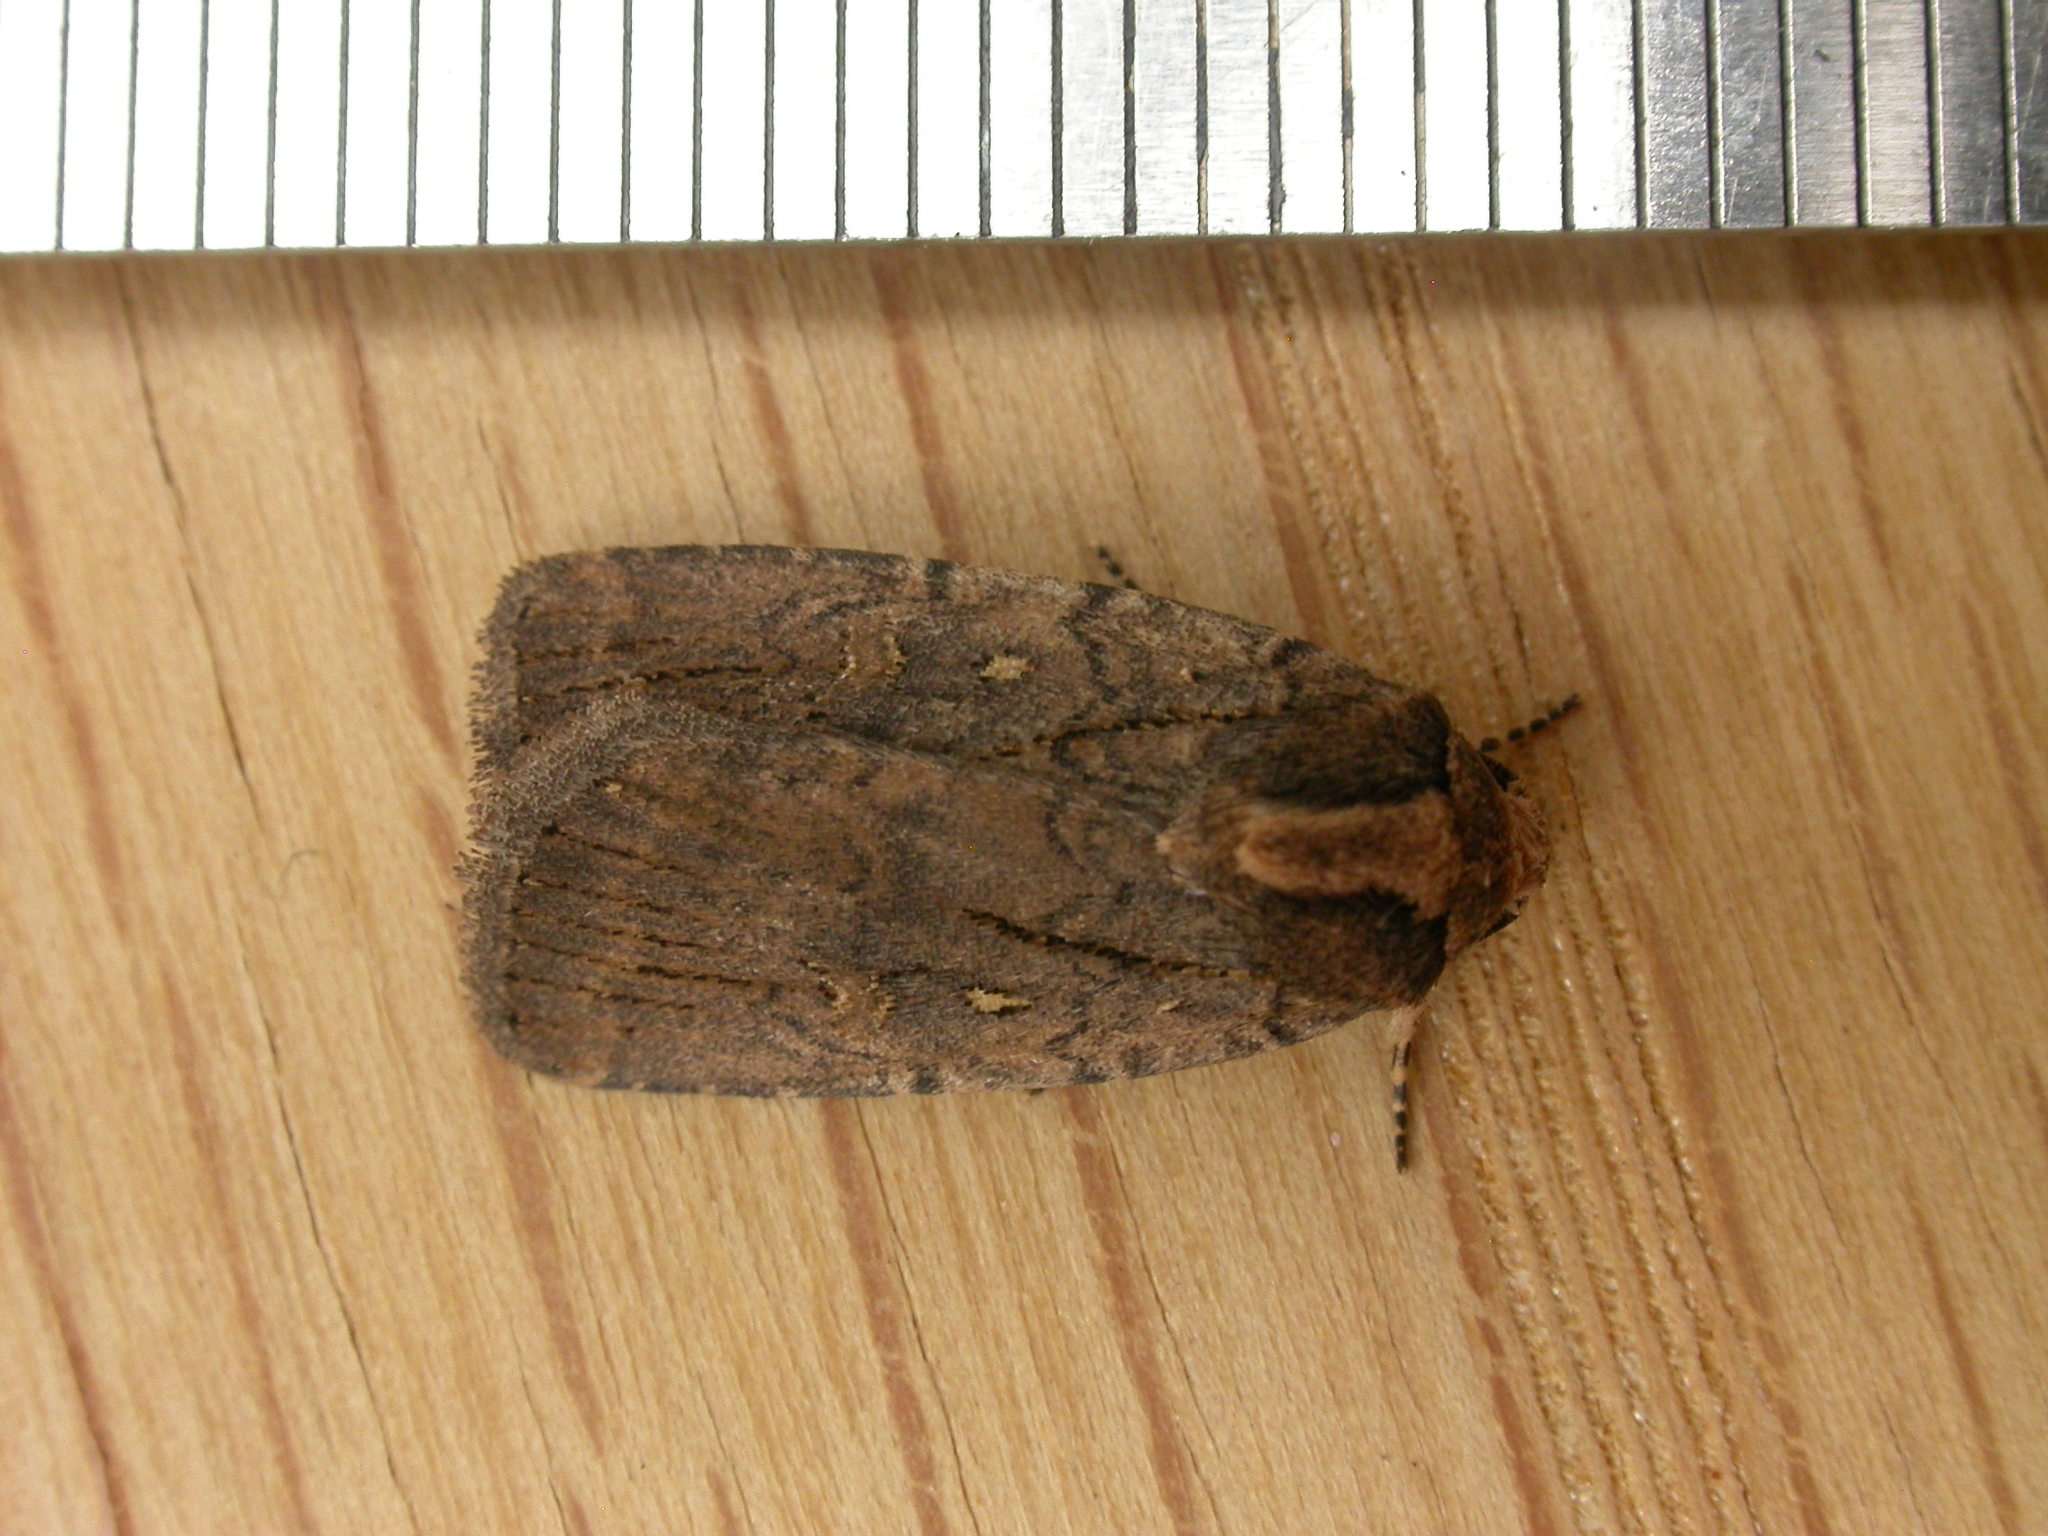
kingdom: Animalia
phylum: Arthropoda
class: Insecta
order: Lepidoptera
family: Noctuidae
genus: Proteuxoa
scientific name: Proteuxoa nyctereutica
